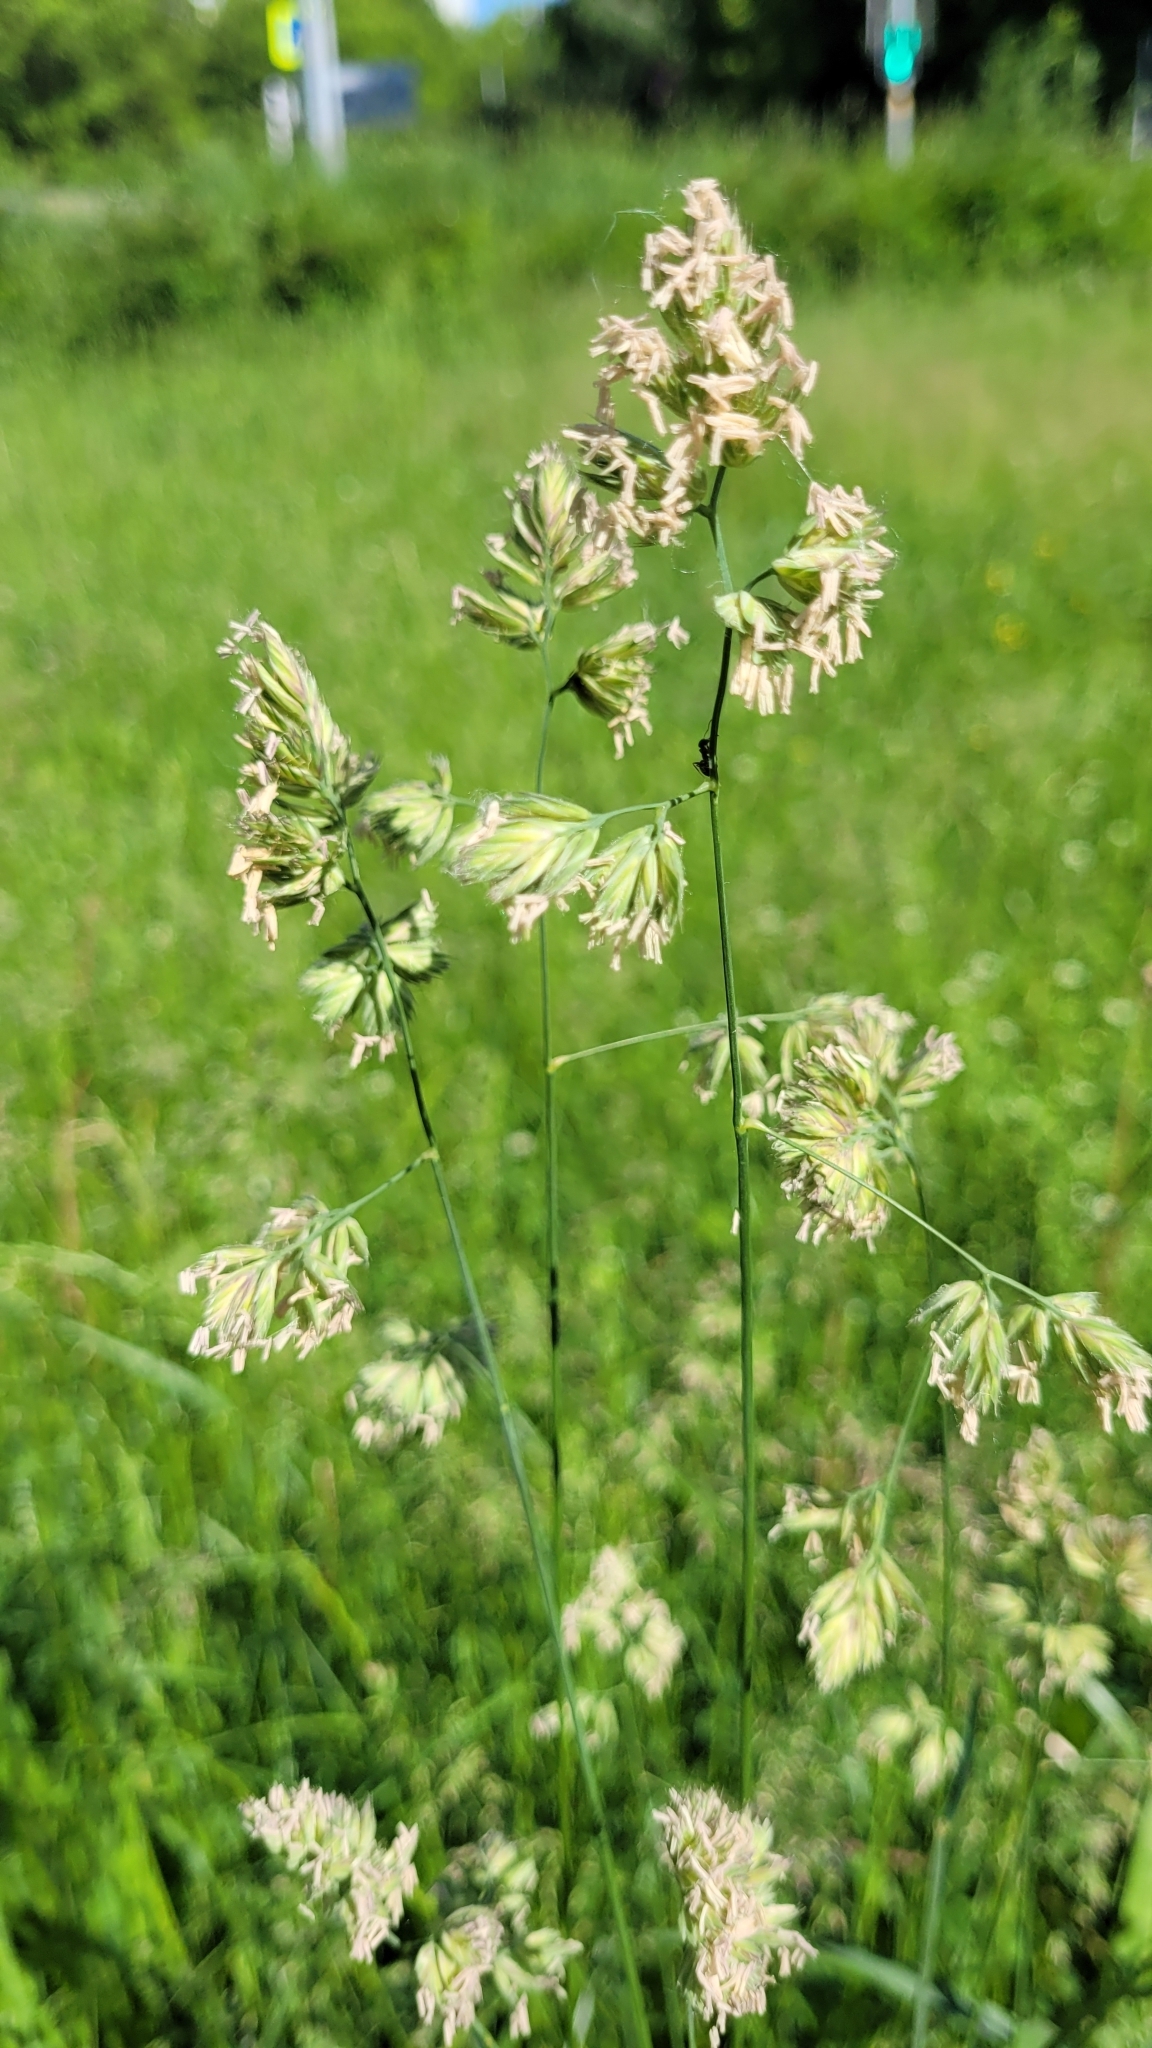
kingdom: Plantae
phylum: Tracheophyta
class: Liliopsida
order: Poales
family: Poaceae
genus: Dactylis
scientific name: Dactylis glomerata
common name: Orchardgrass
